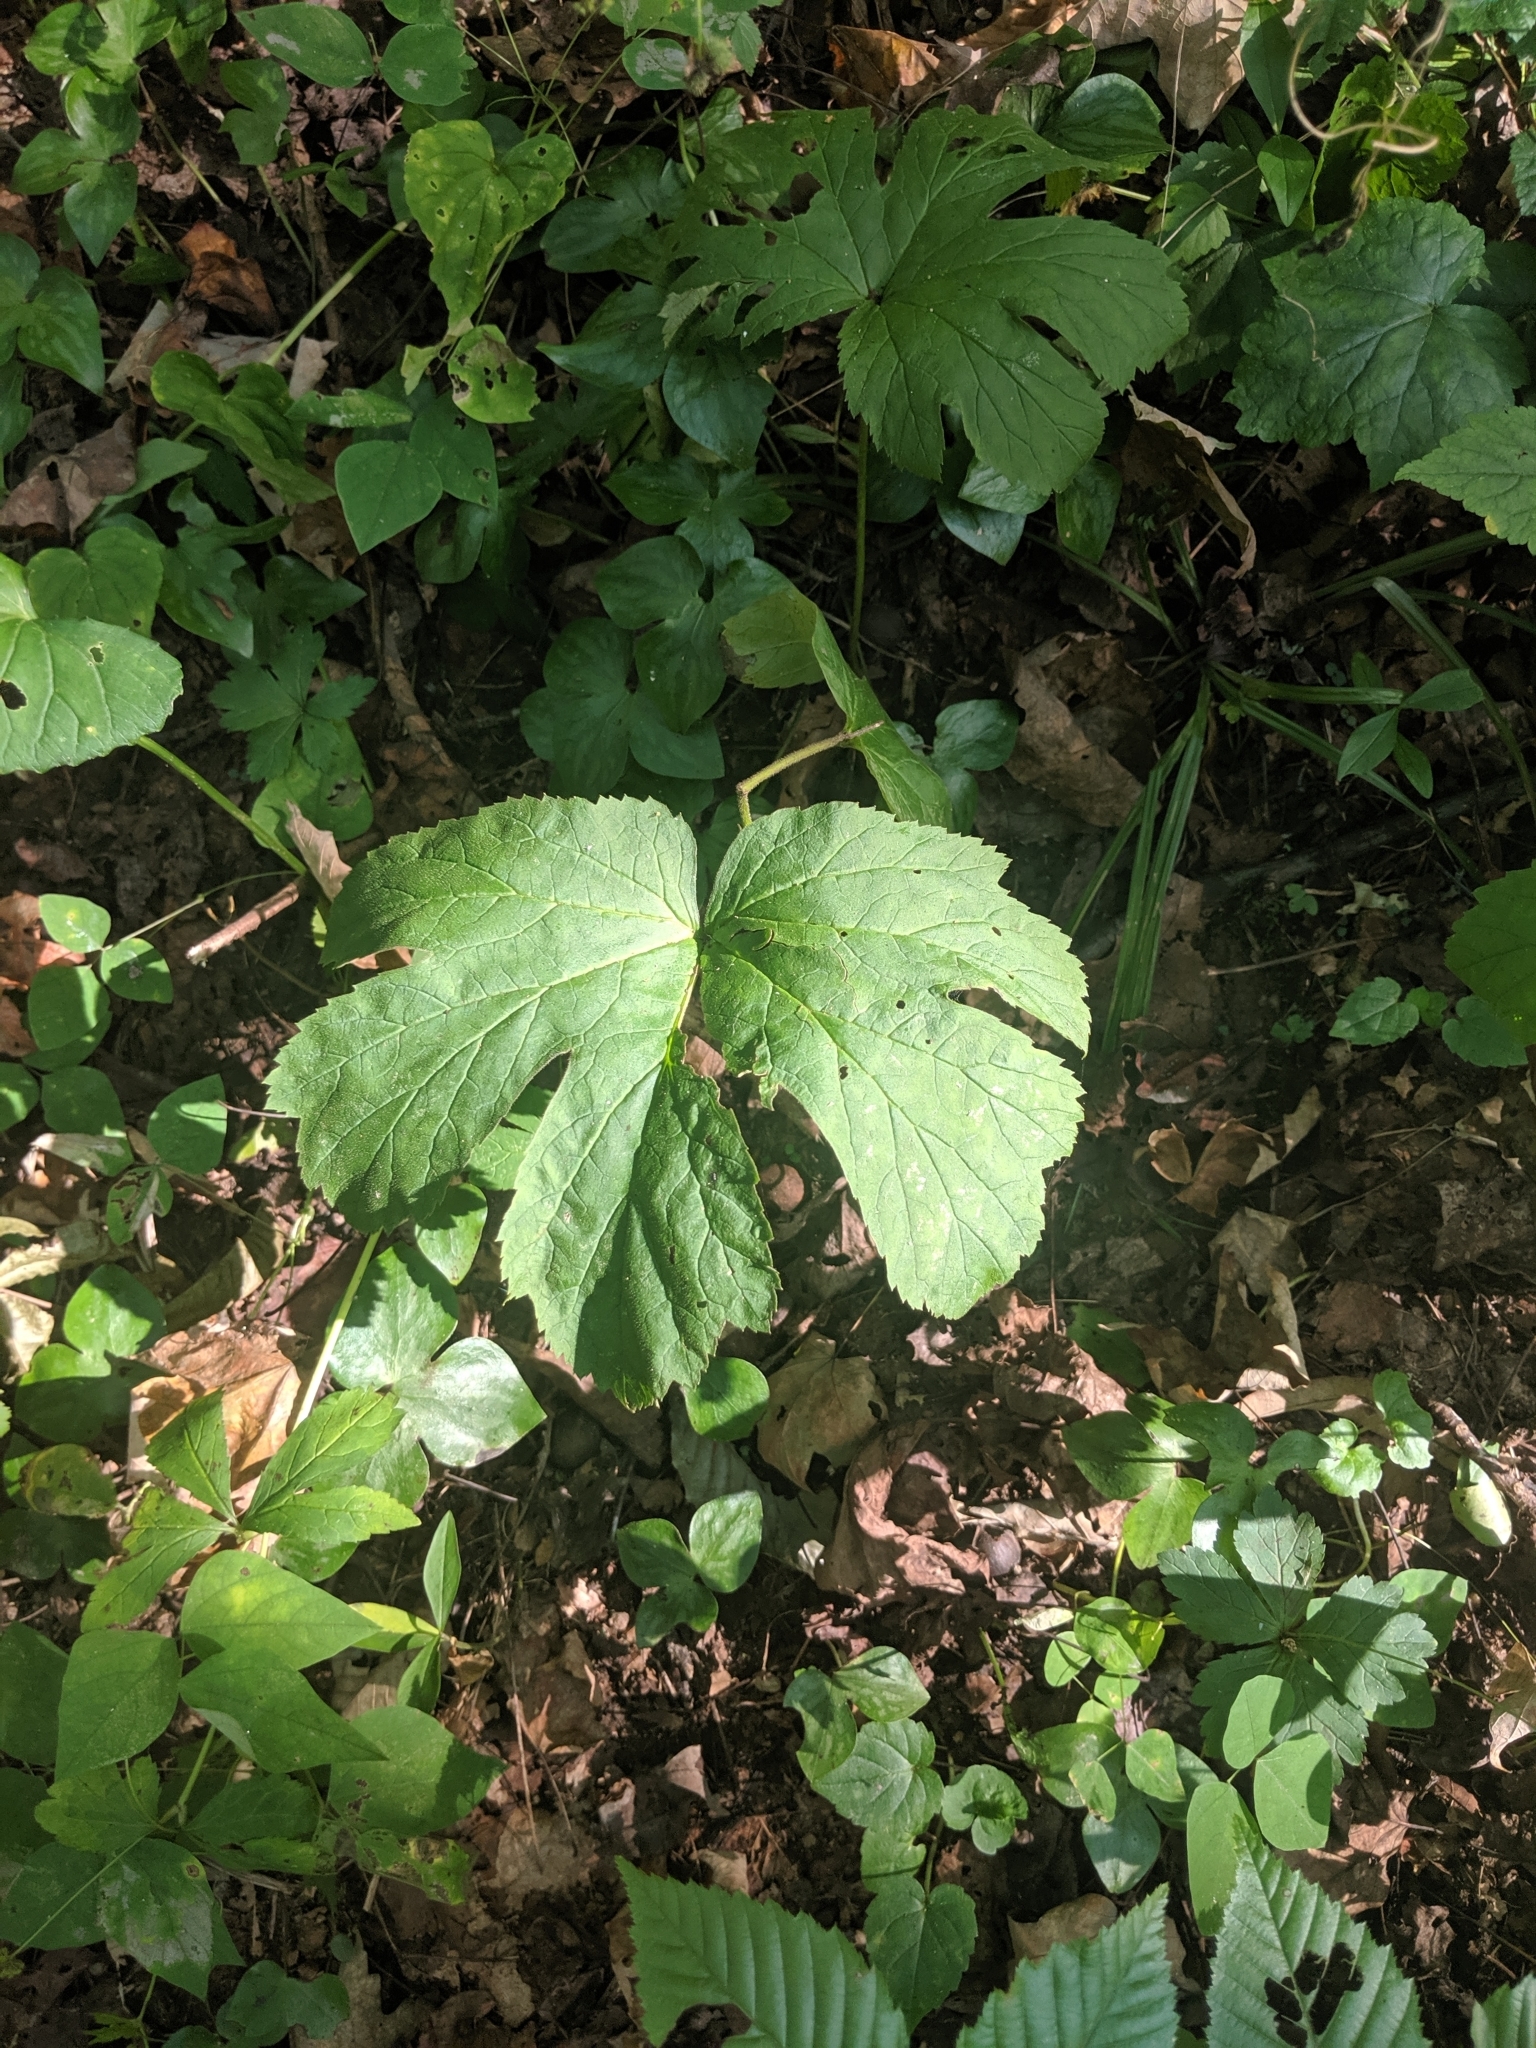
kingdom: Plantae
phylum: Tracheophyta
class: Magnoliopsida
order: Ranunculales
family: Ranunculaceae
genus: Hydrastis
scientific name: Hydrastis canadensis
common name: Goldenseal
